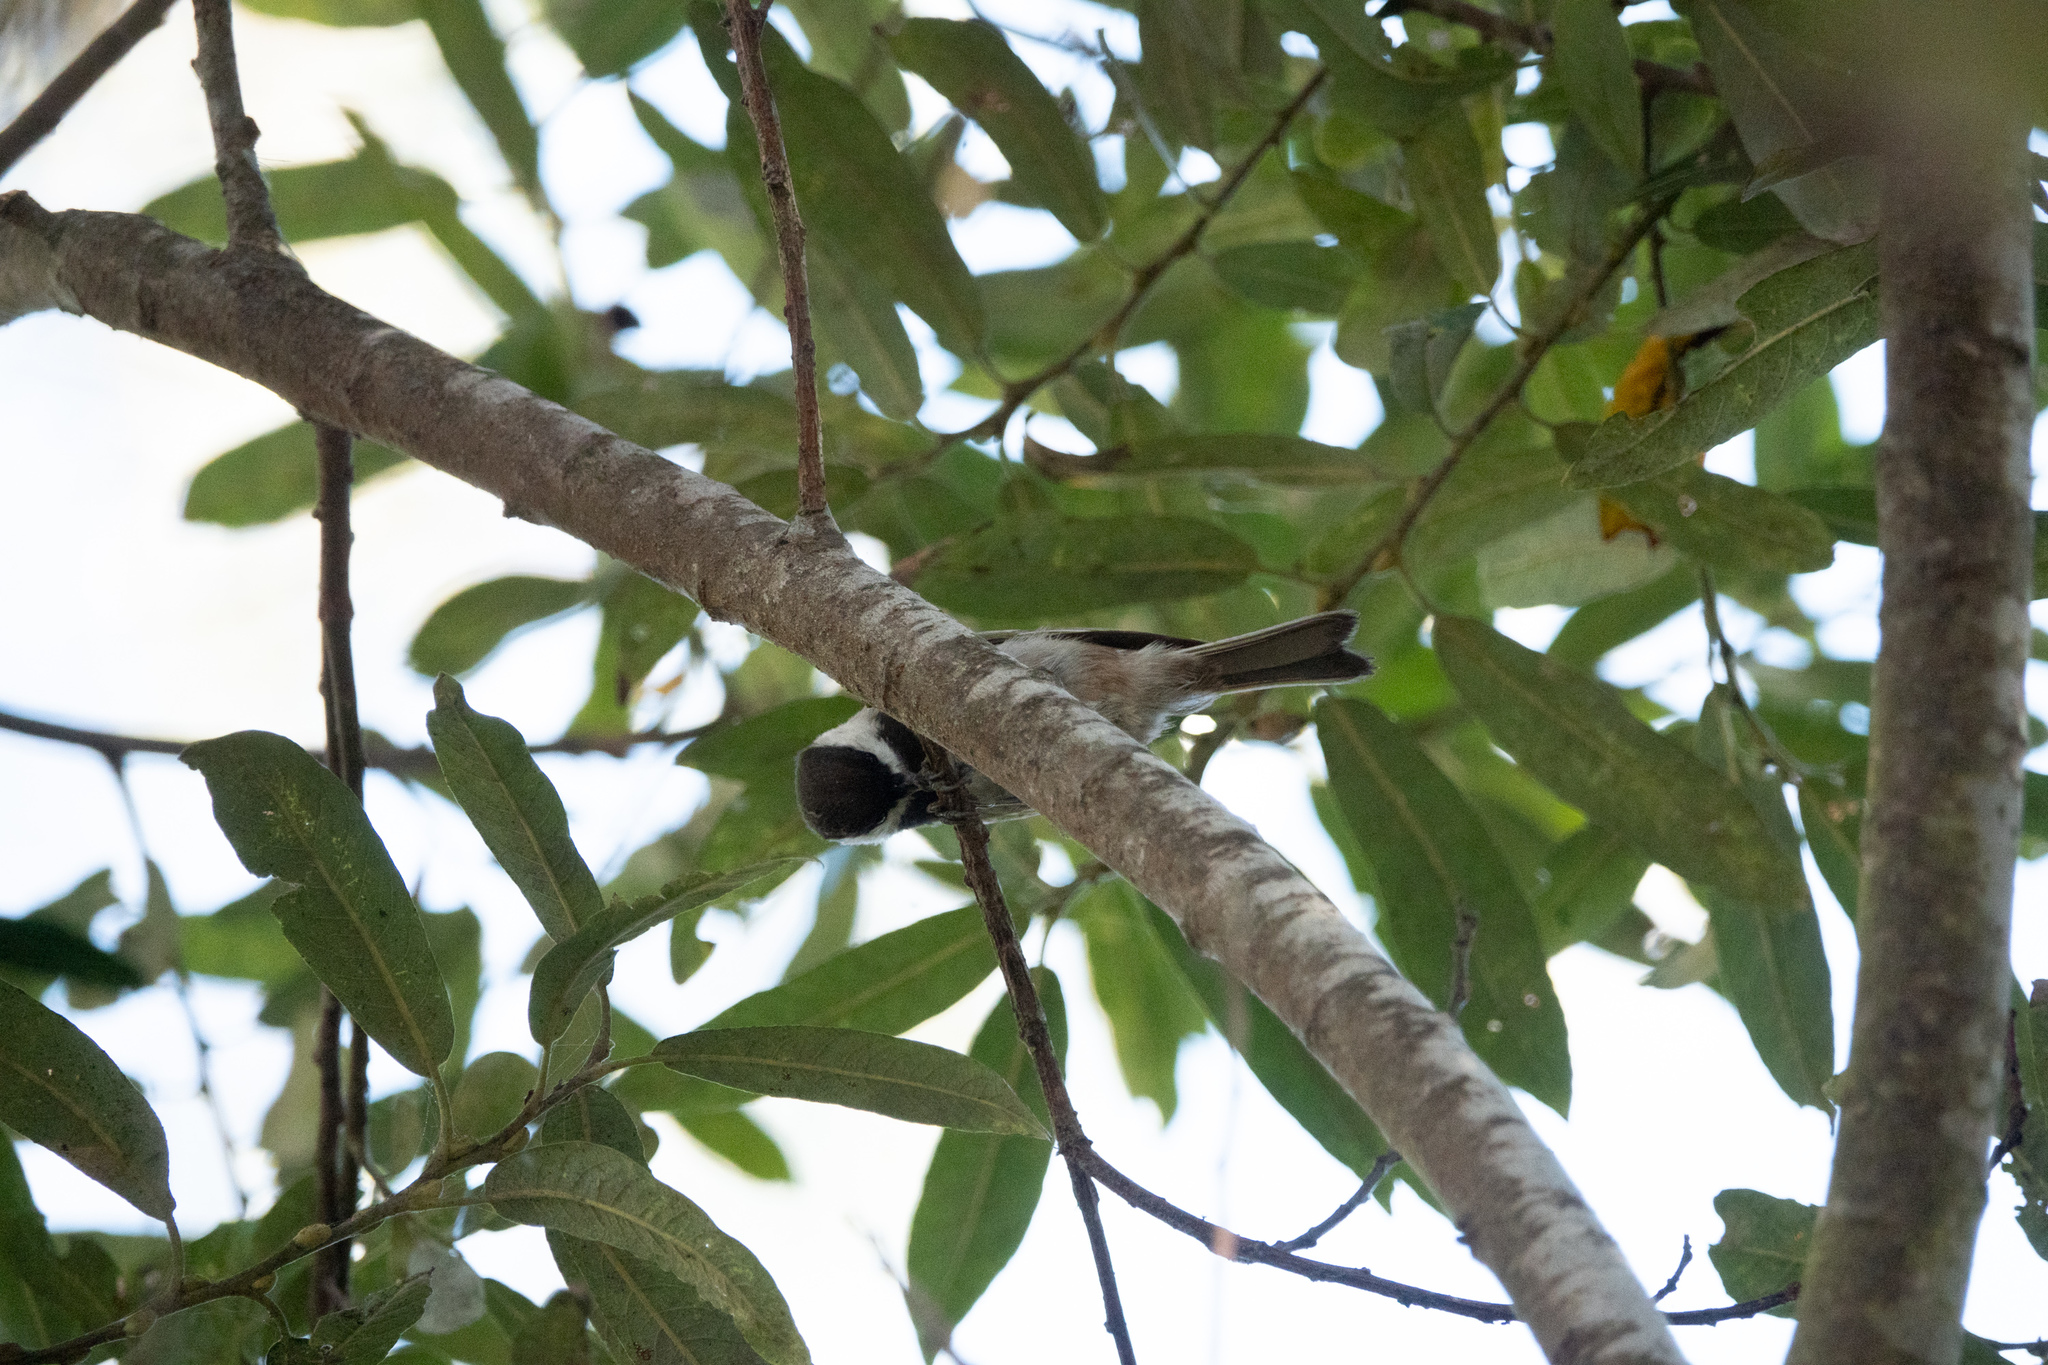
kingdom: Animalia
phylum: Chordata
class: Aves
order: Passeriformes
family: Paridae
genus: Poecile
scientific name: Poecile rufescens
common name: Chestnut-backed chickadee
